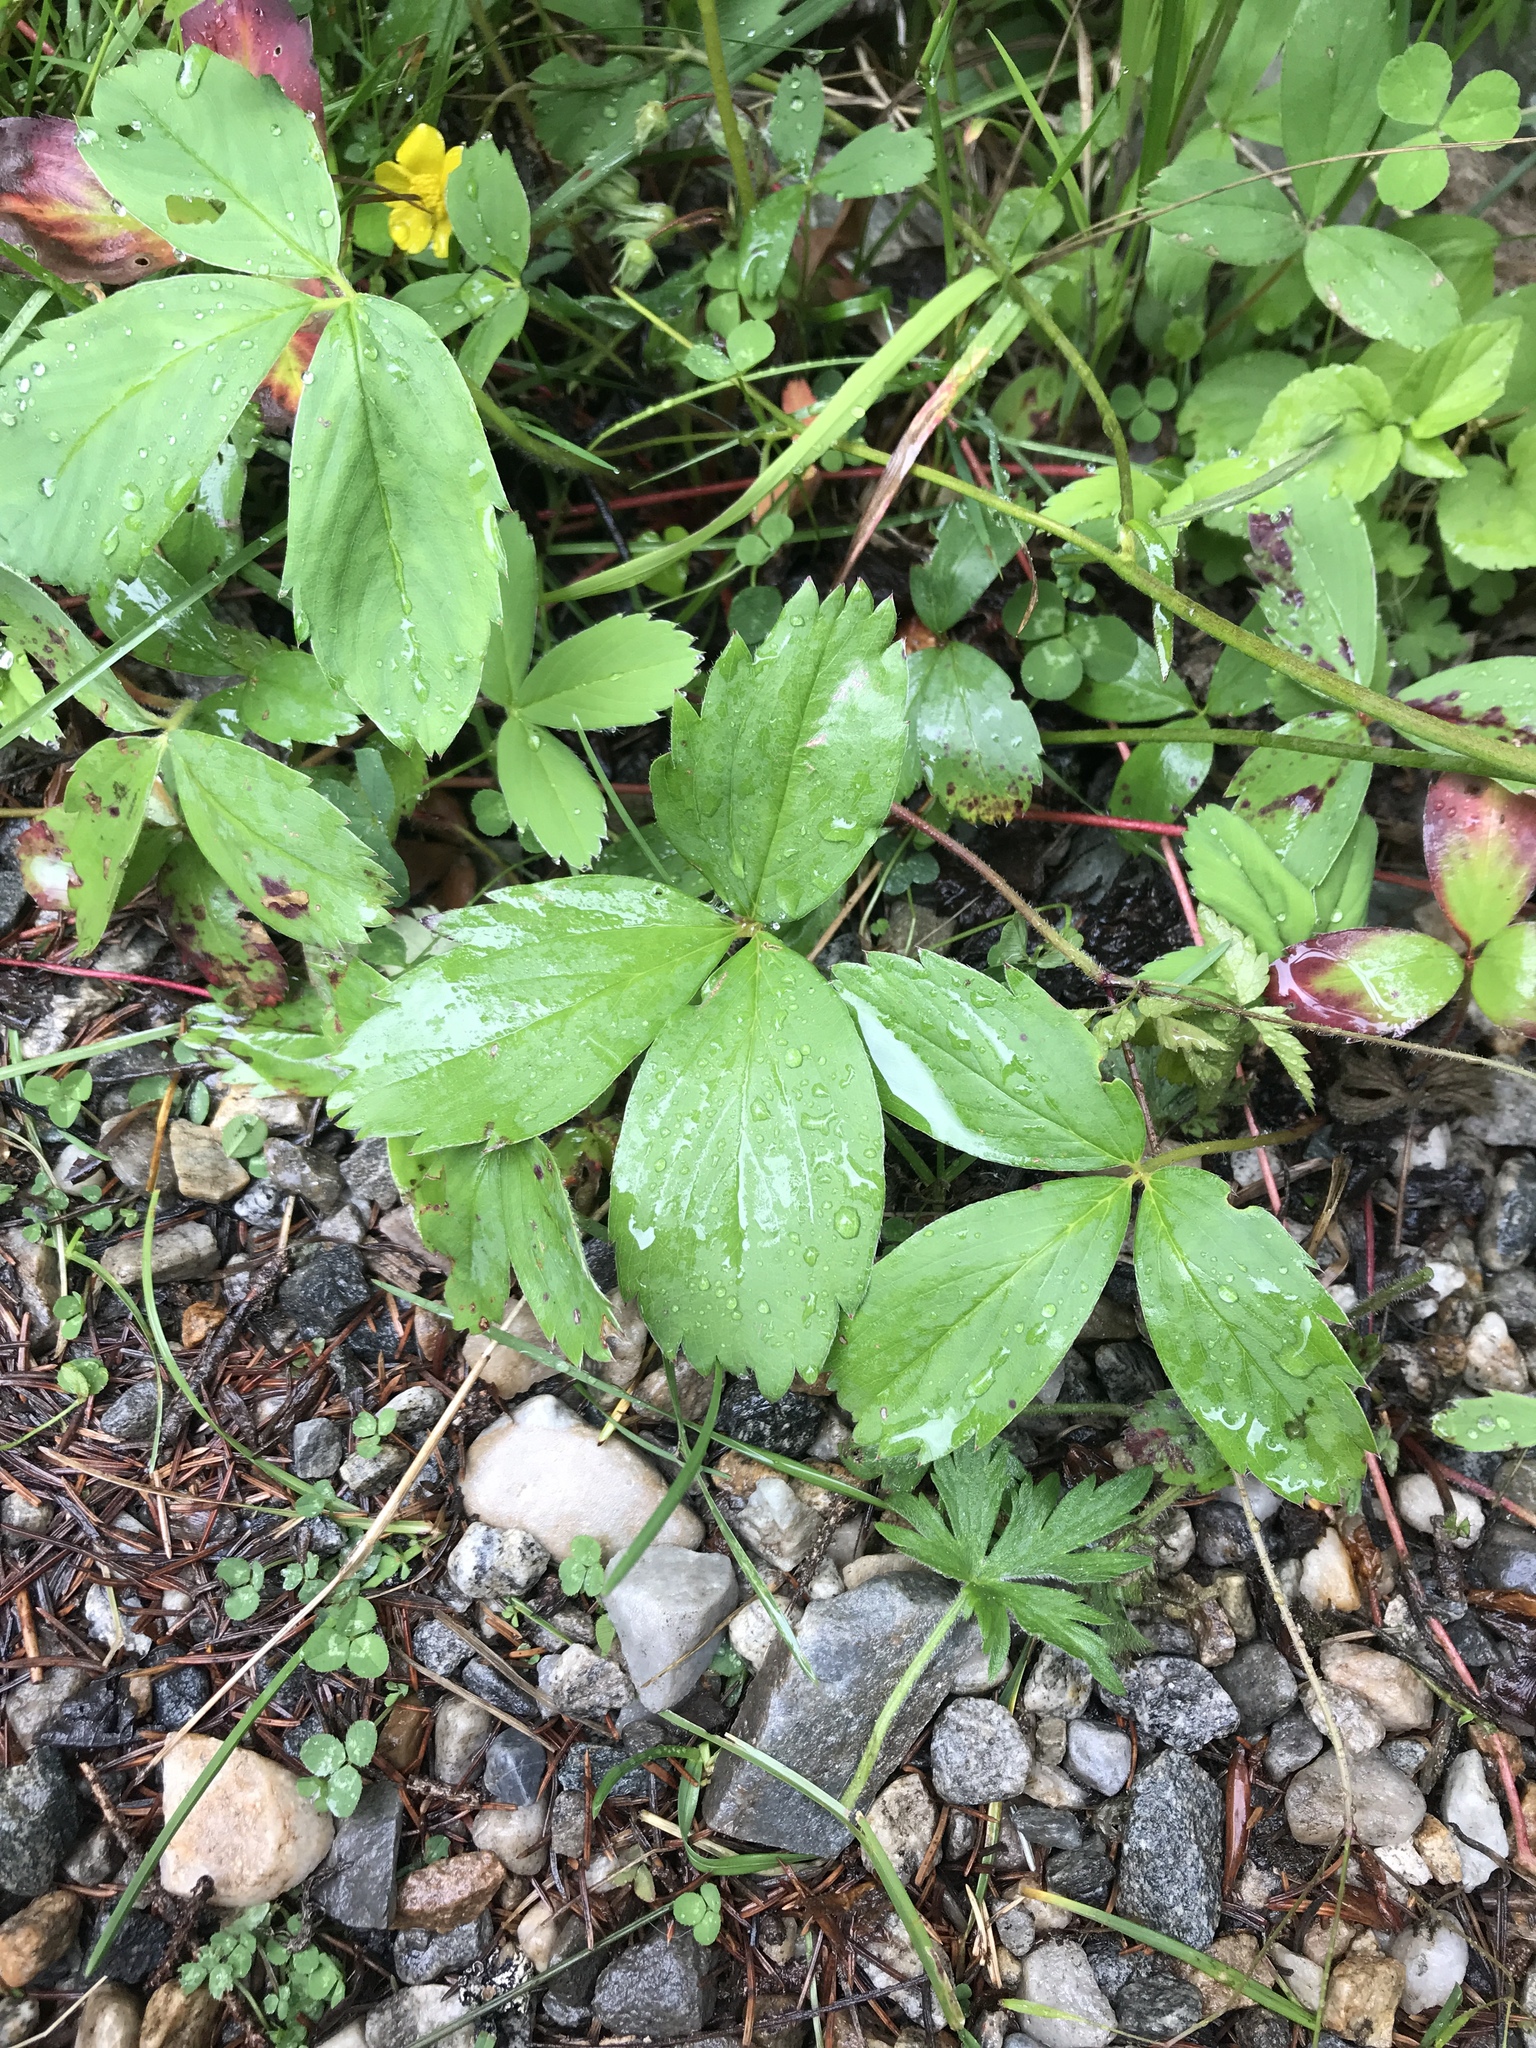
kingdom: Plantae
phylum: Tracheophyta
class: Magnoliopsida
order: Rosales
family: Rosaceae
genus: Fragaria
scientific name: Fragaria virginiana
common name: Thickleaved wild strawberry
